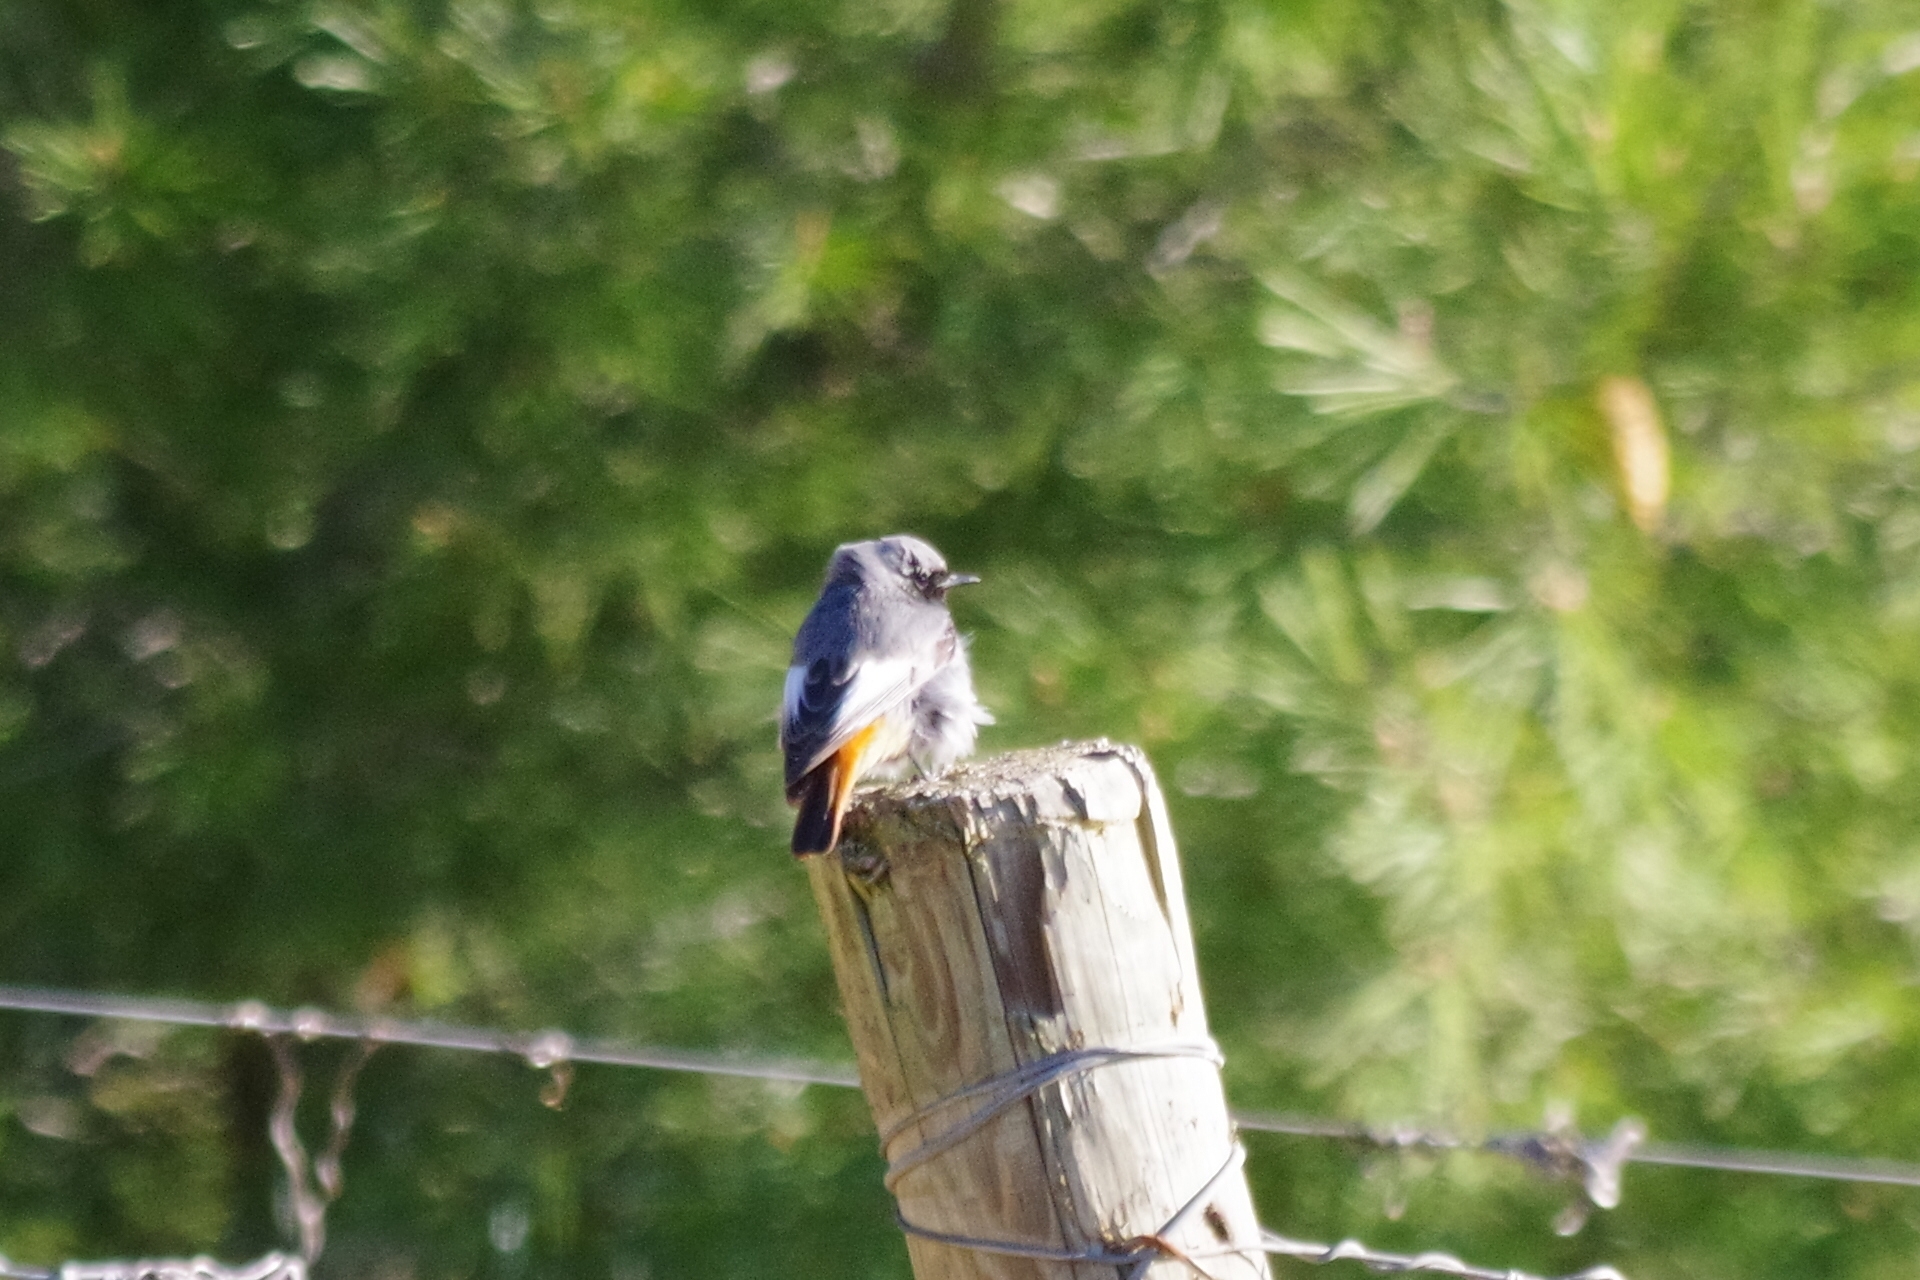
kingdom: Animalia
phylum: Chordata
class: Aves
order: Passeriformes
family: Muscicapidae
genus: Phoenicurus
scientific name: Phoenicurus ochruros
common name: Black redstart
